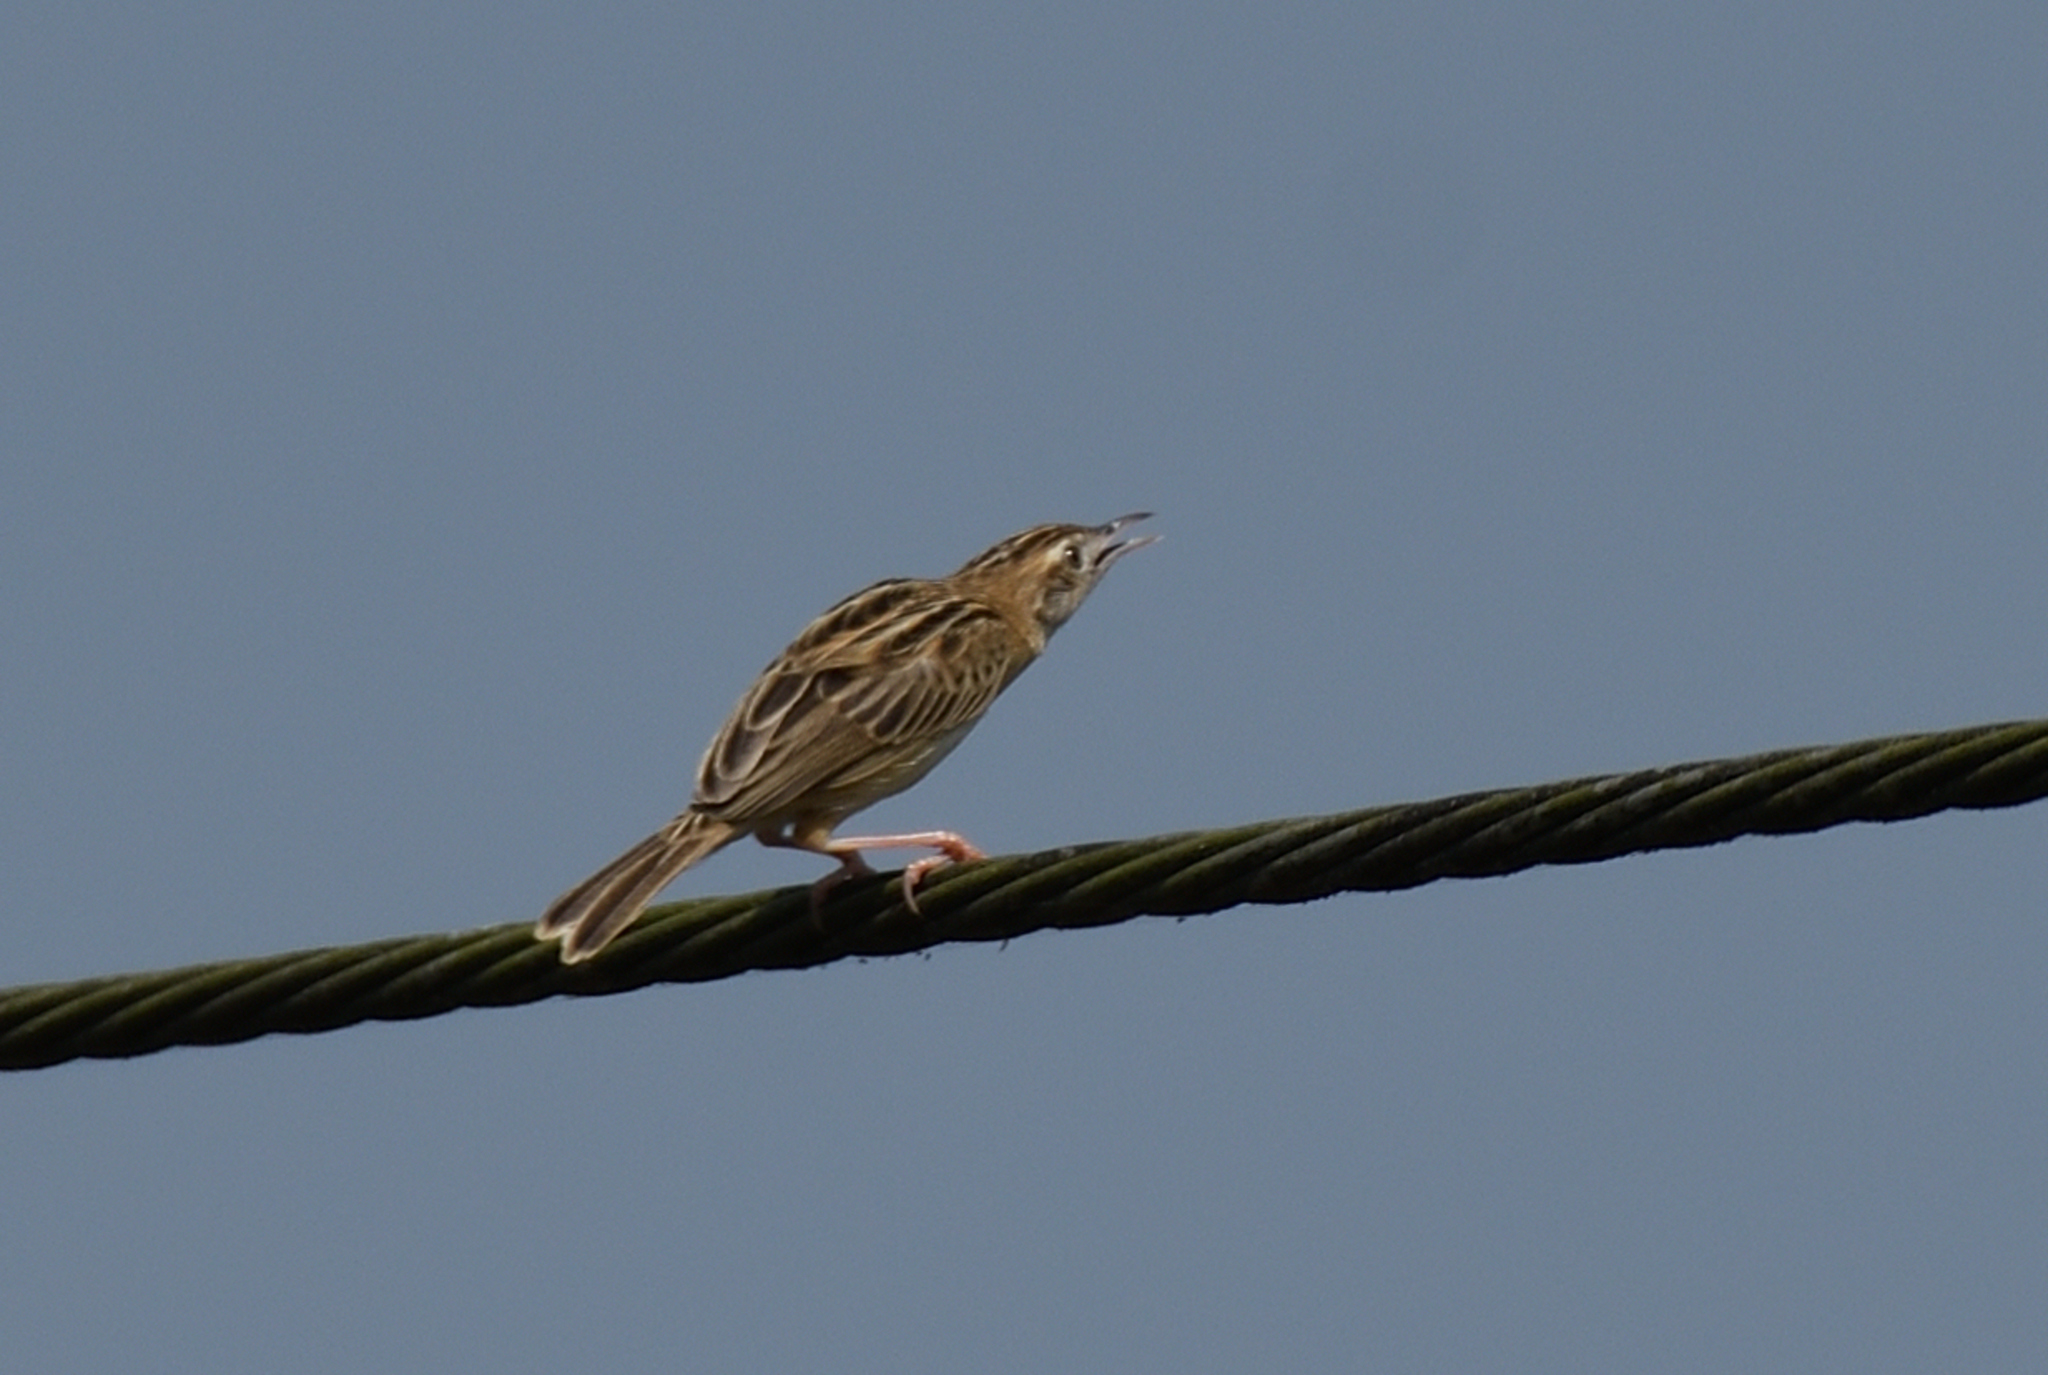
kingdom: Animalia
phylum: Chordata
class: Aves
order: Passeriformes
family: Cisticolidae
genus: Cisticola
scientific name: Cisticola juncidis
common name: Zitting cisticola
